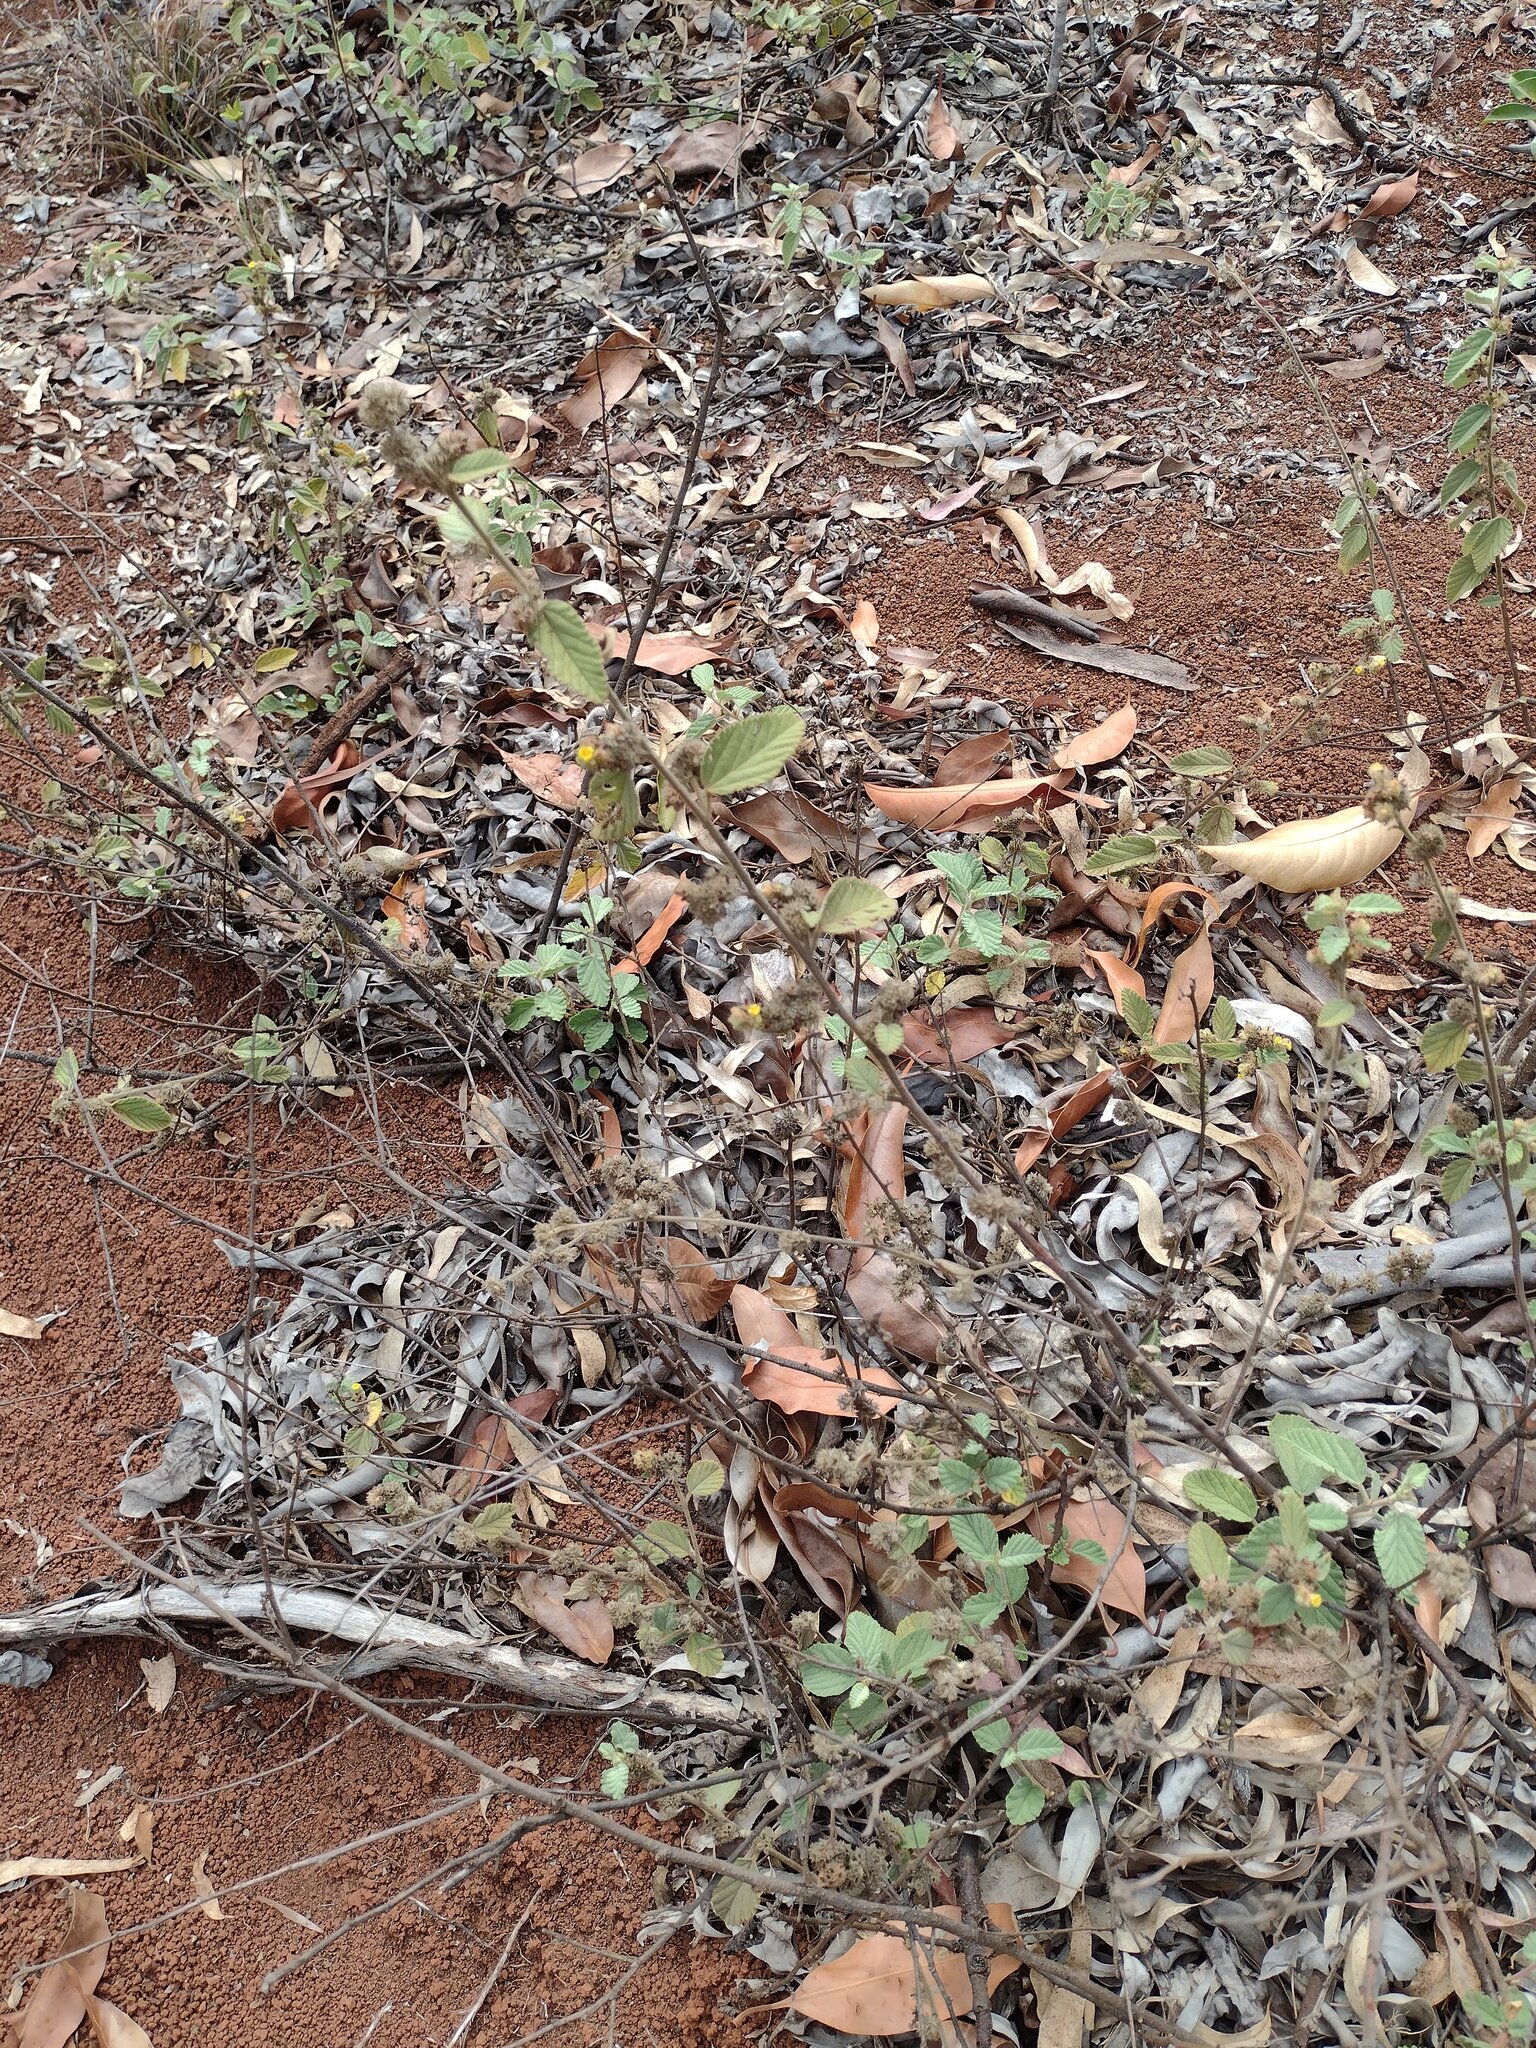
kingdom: Plantae
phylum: Tracheophyta
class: Magnoliopsida
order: Malvales
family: Malvaceae
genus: Waltheria
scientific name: Waltheria indica
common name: Leather-coat
